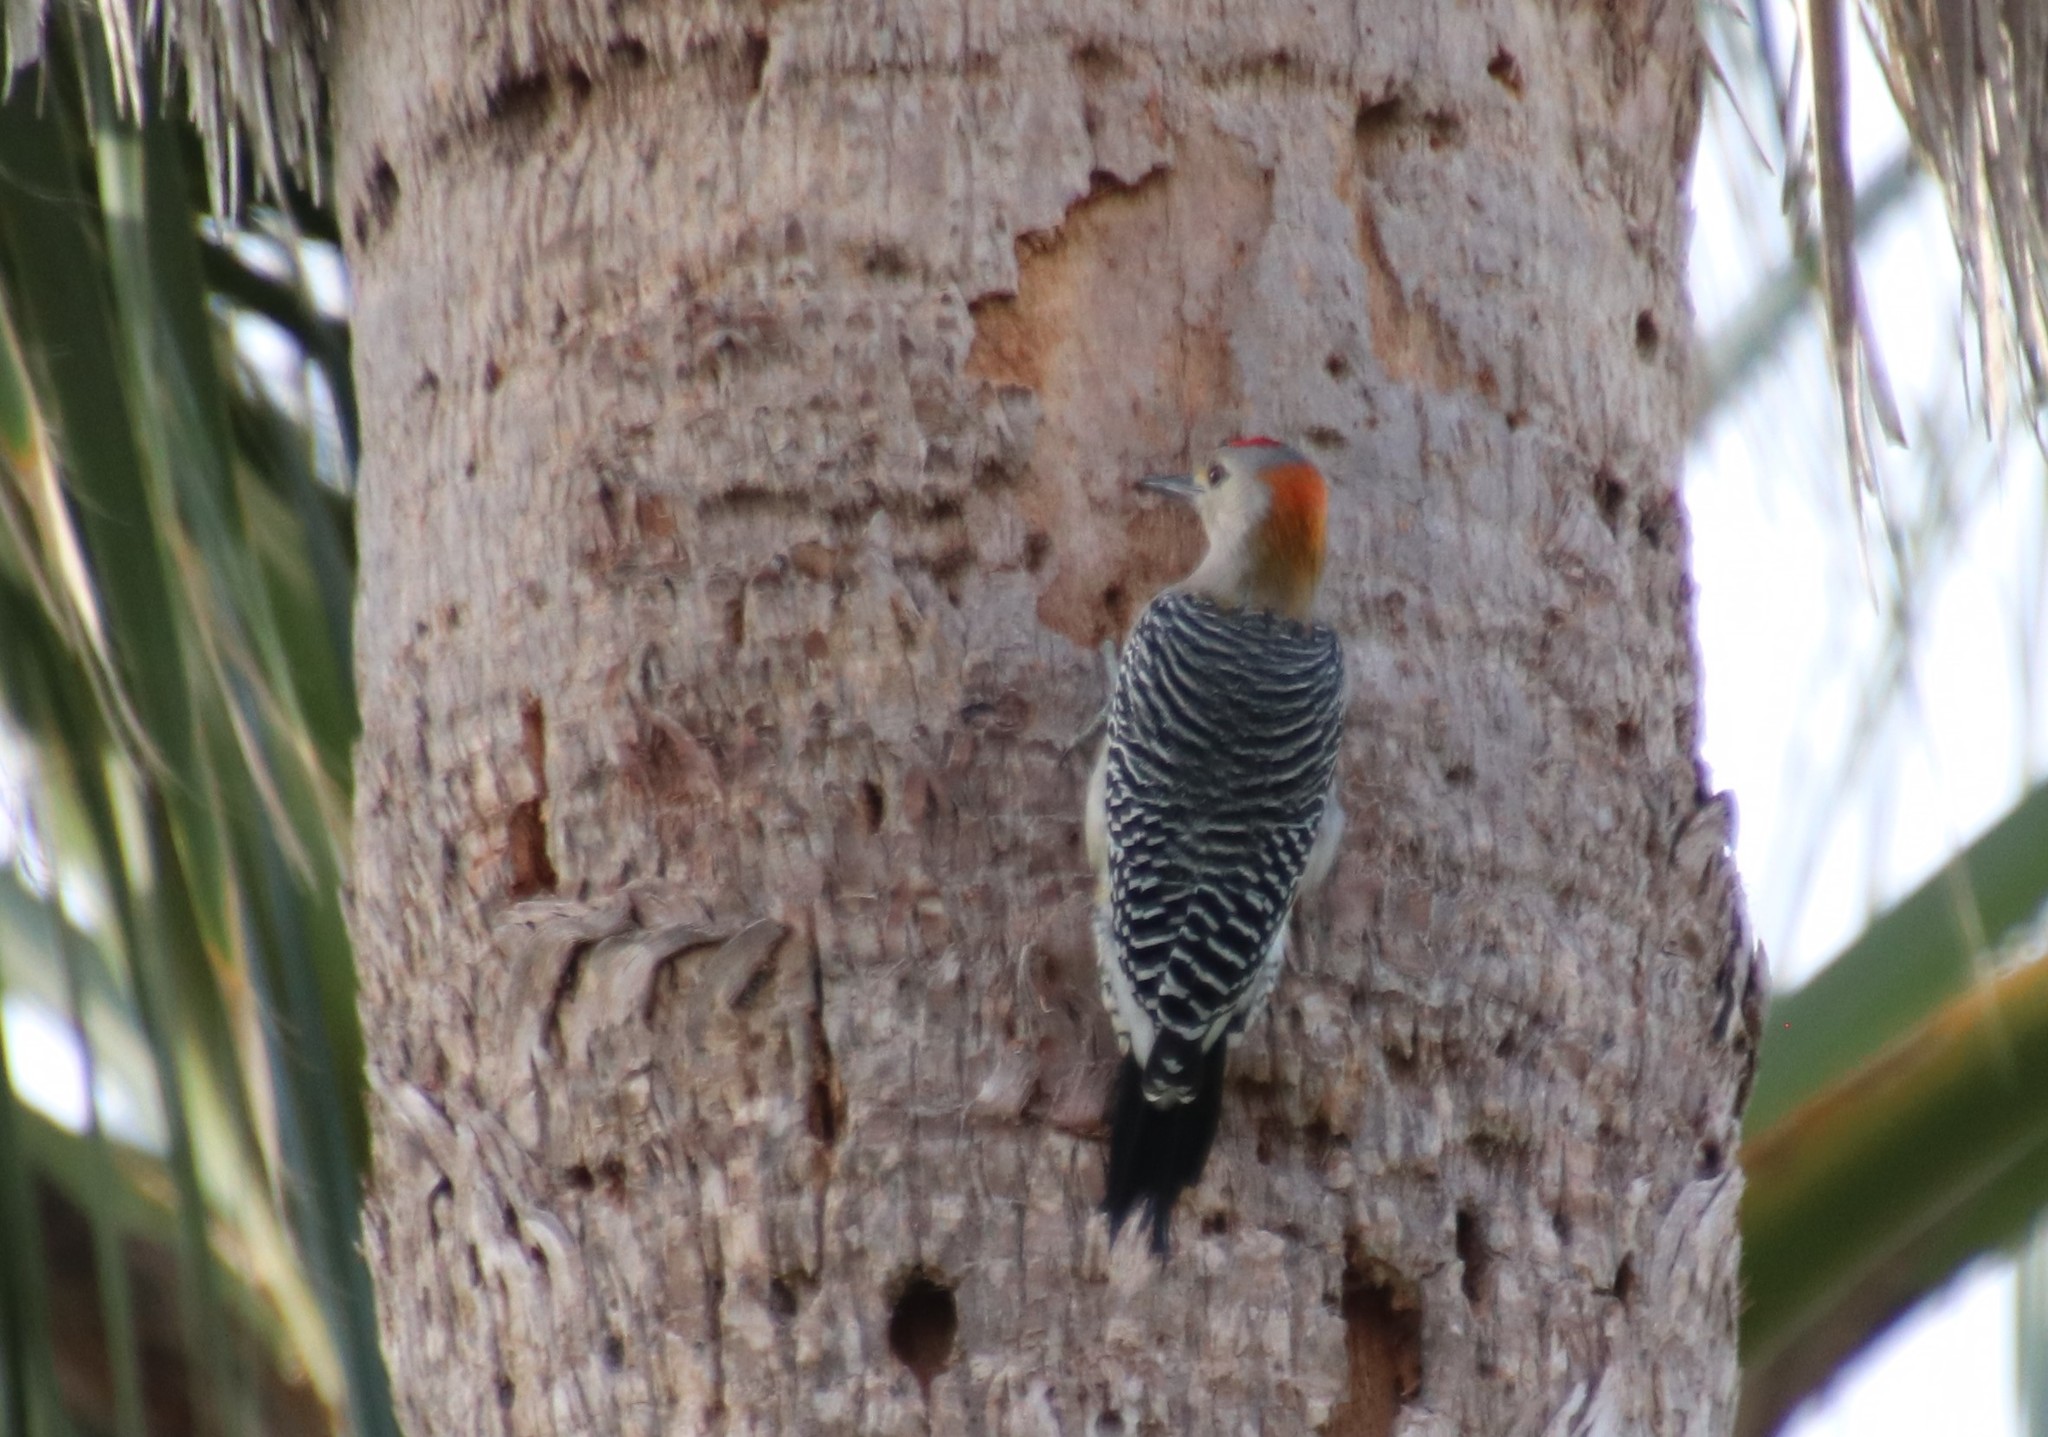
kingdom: Animalia
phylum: Chordata
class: Aves
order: Piciformes
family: Picidae
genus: Melanerpes
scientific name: Melanerpes aurifrons
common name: Golden-fronted woodpecker
